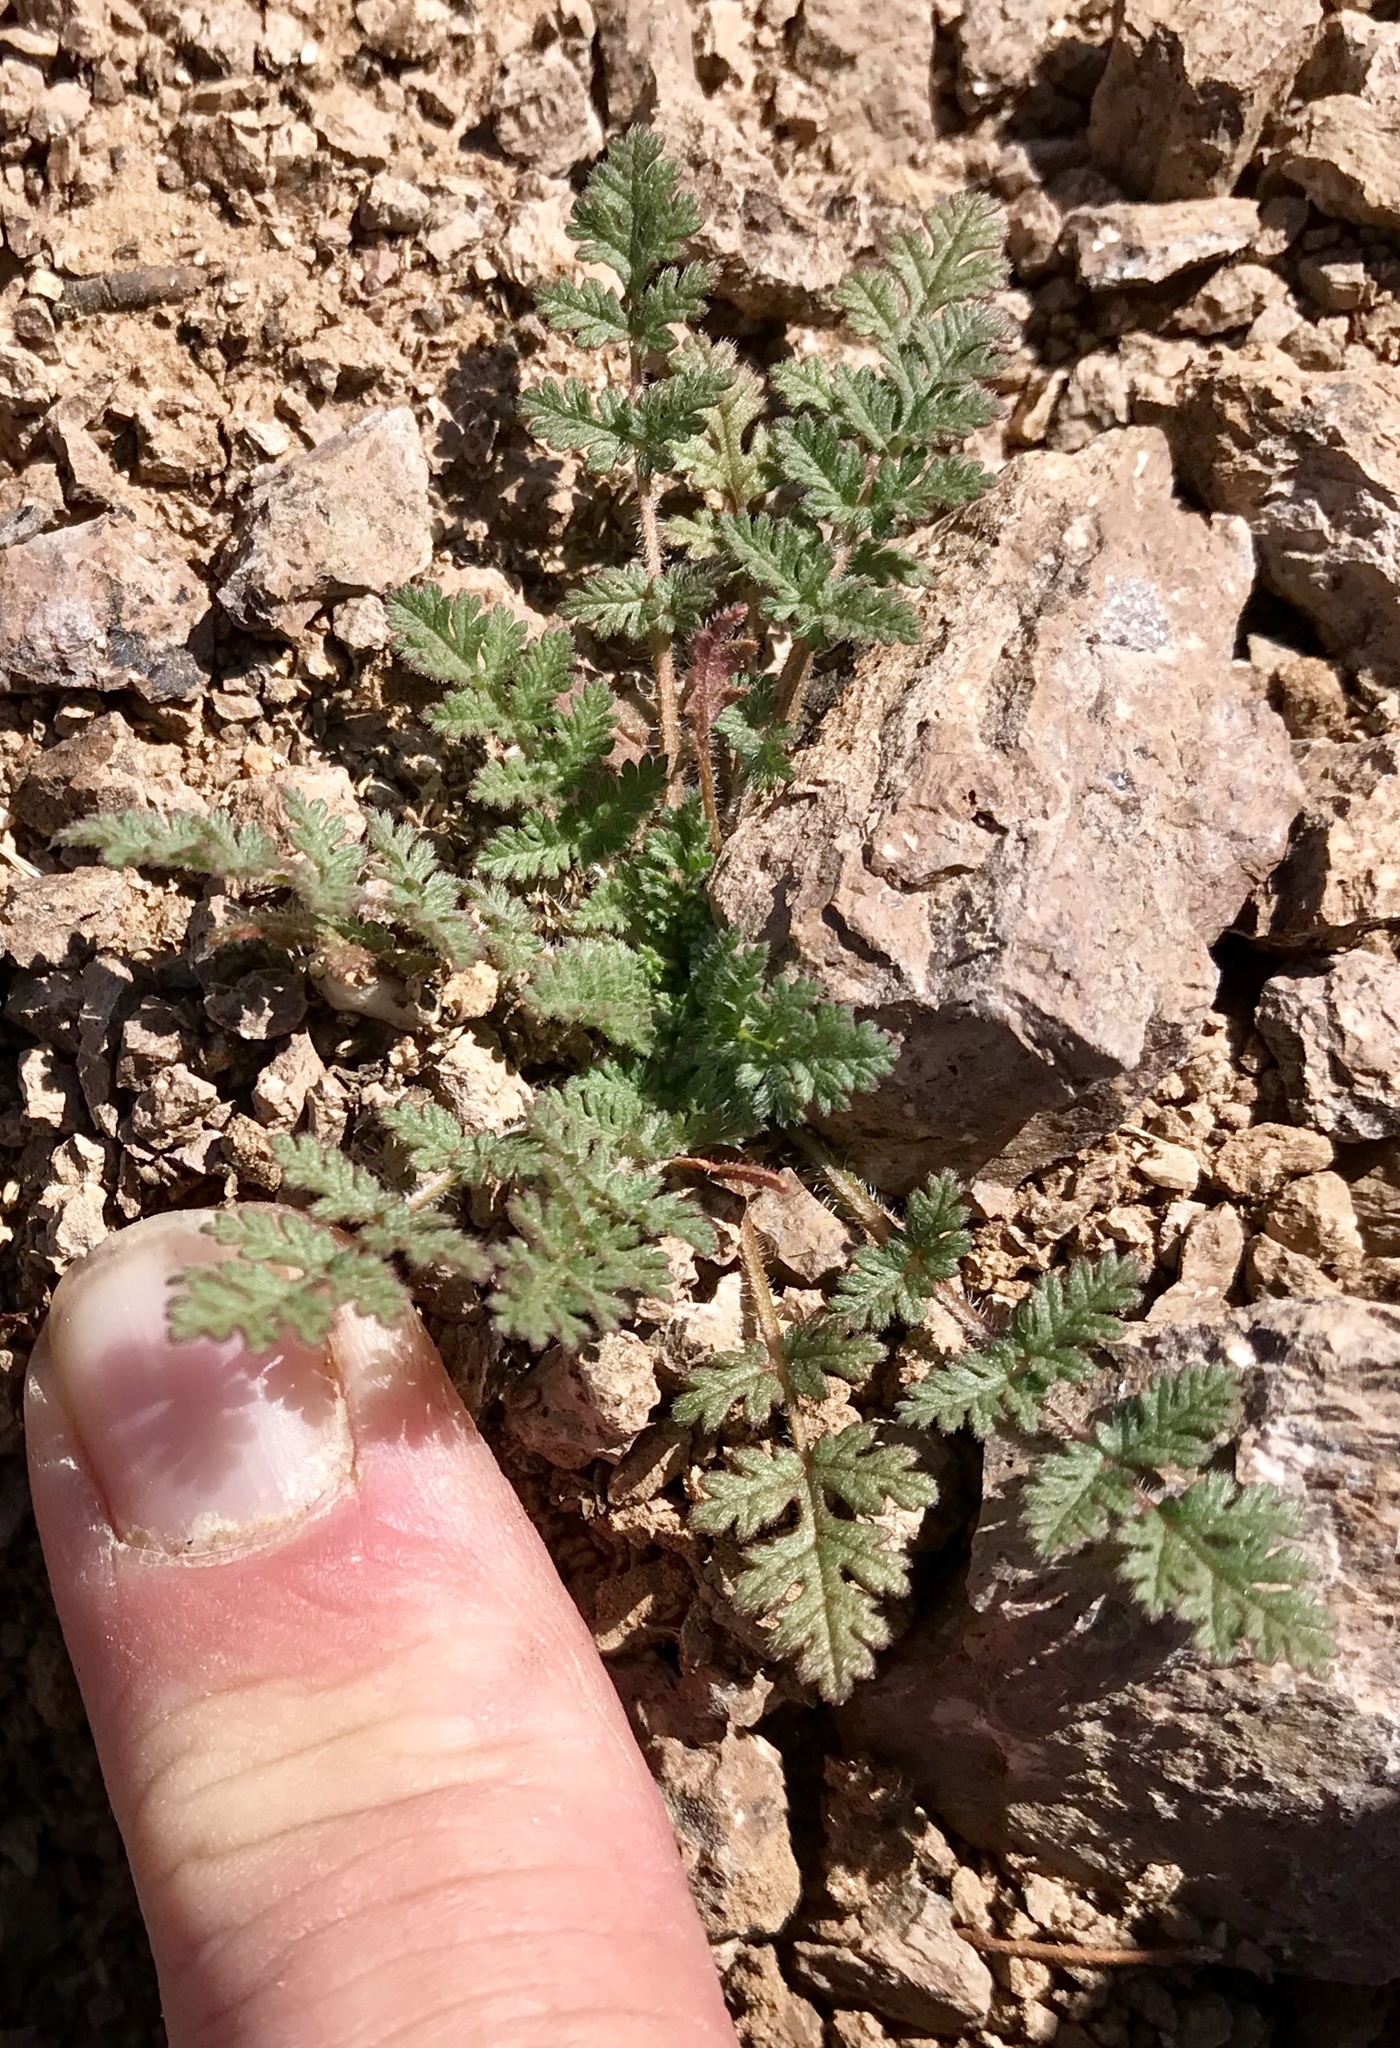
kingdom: Plantae
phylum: Tracheophyta
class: Magnoliopsida
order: Geraniales
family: Geraniaceae
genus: Erodium
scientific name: Erodium cicutarium
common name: Common stork's-bill
